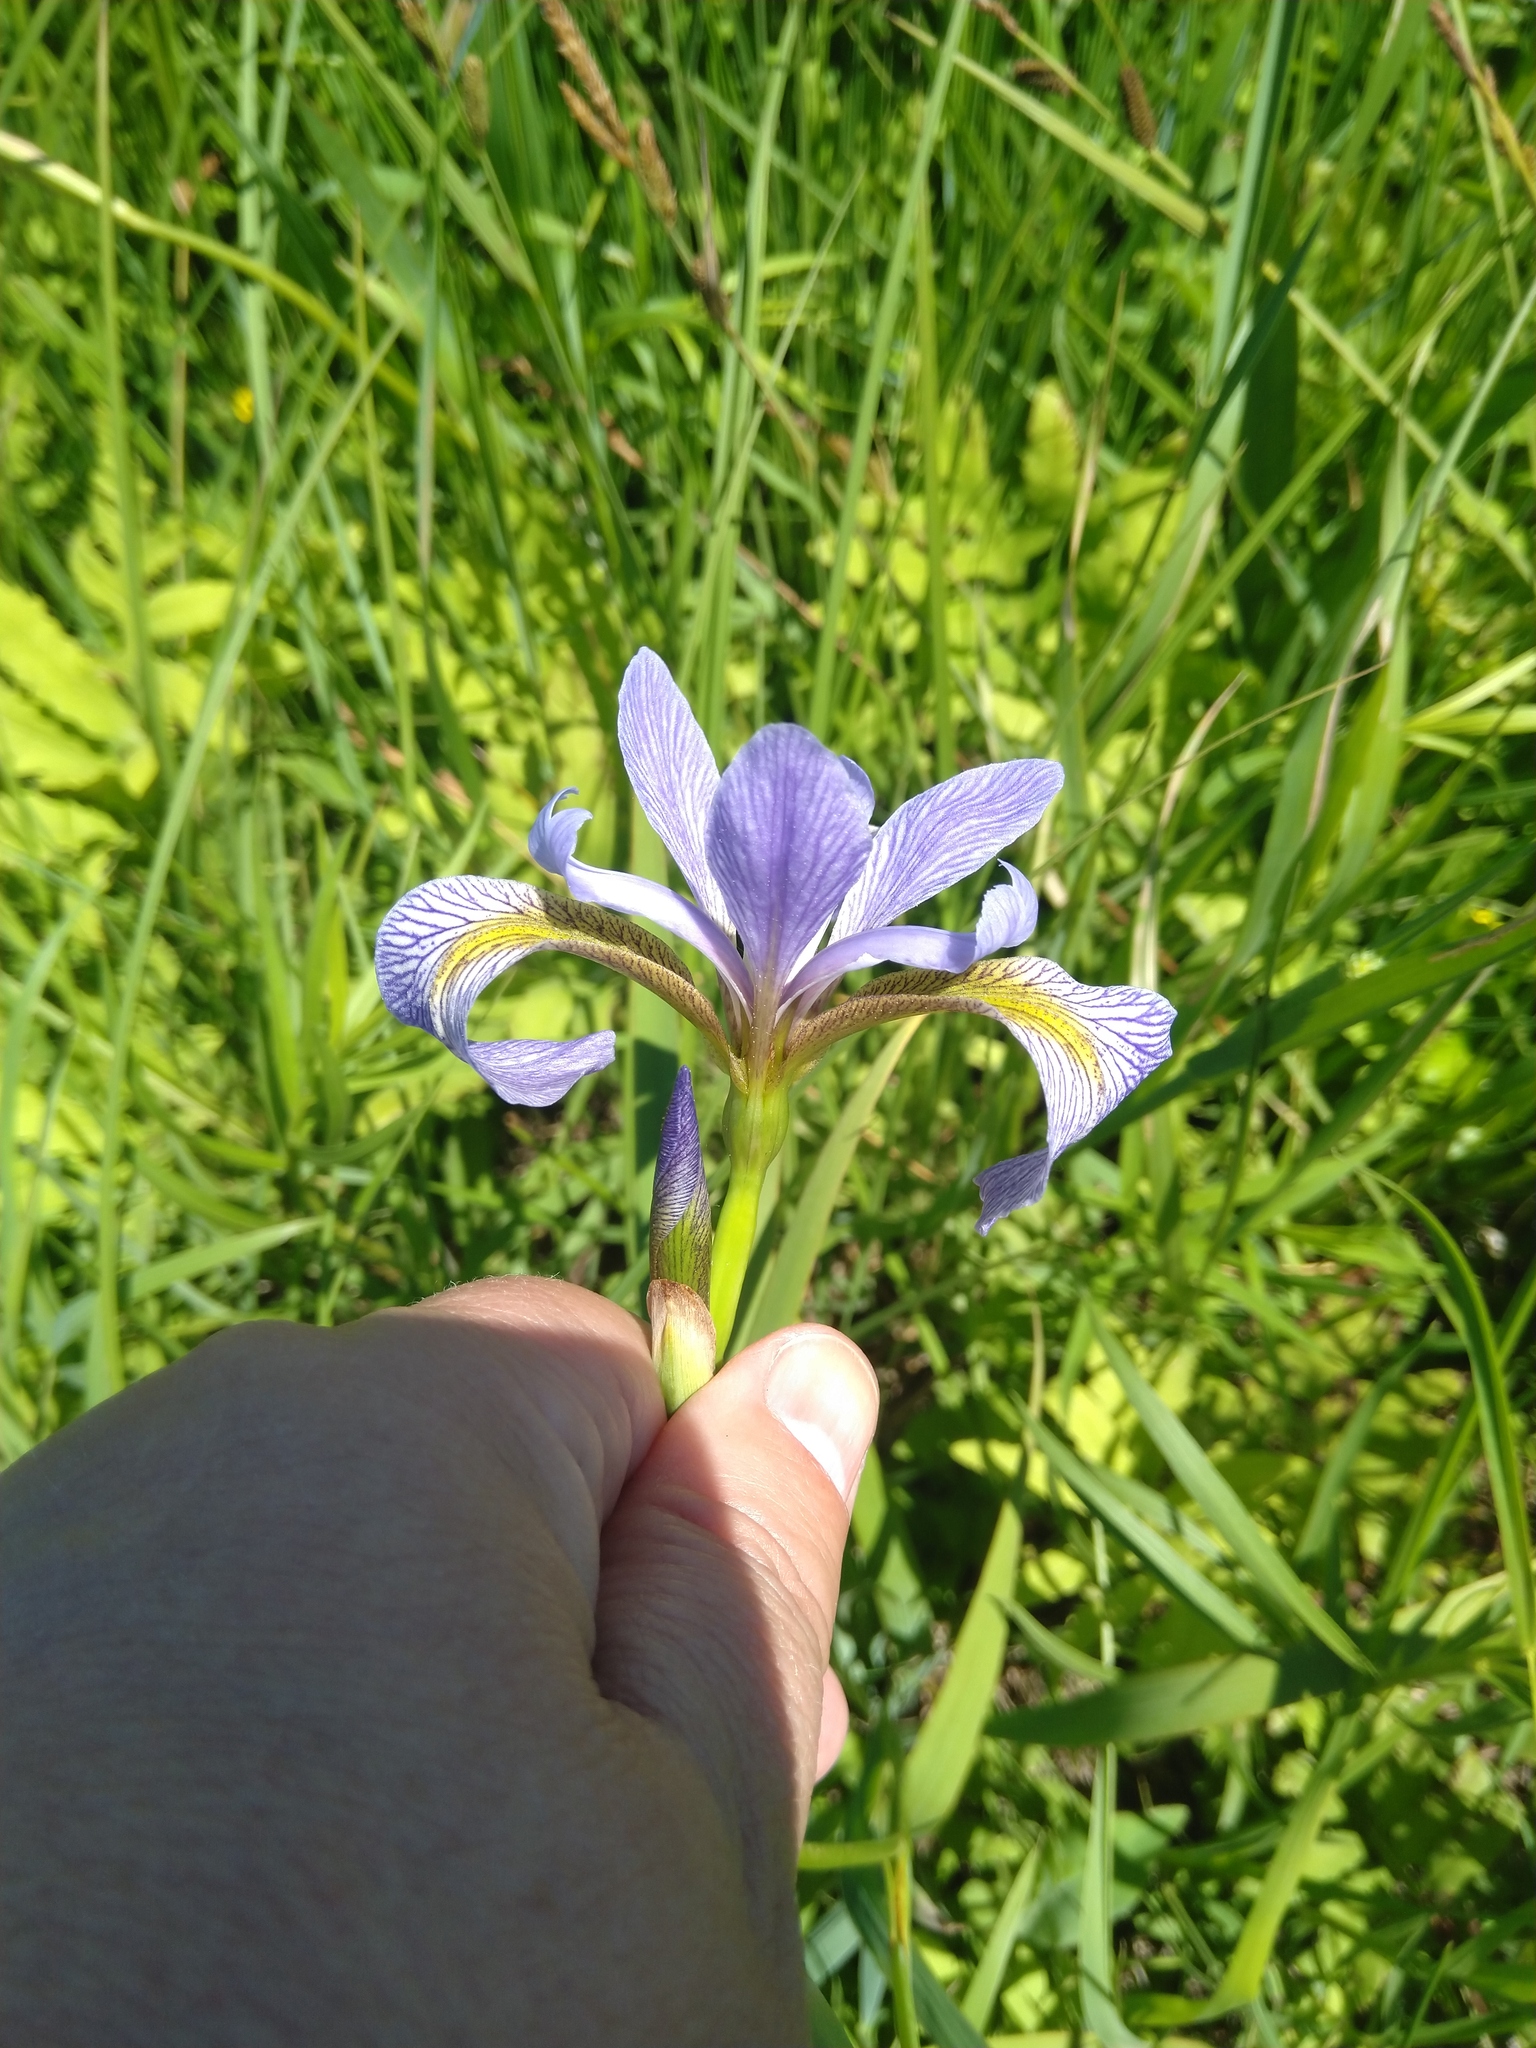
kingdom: Plantae
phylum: Tracheophyta
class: Liliopsida
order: Asparagales
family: Iridaceae
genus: Iris
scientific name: Iris virginica
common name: Southern blue flag
